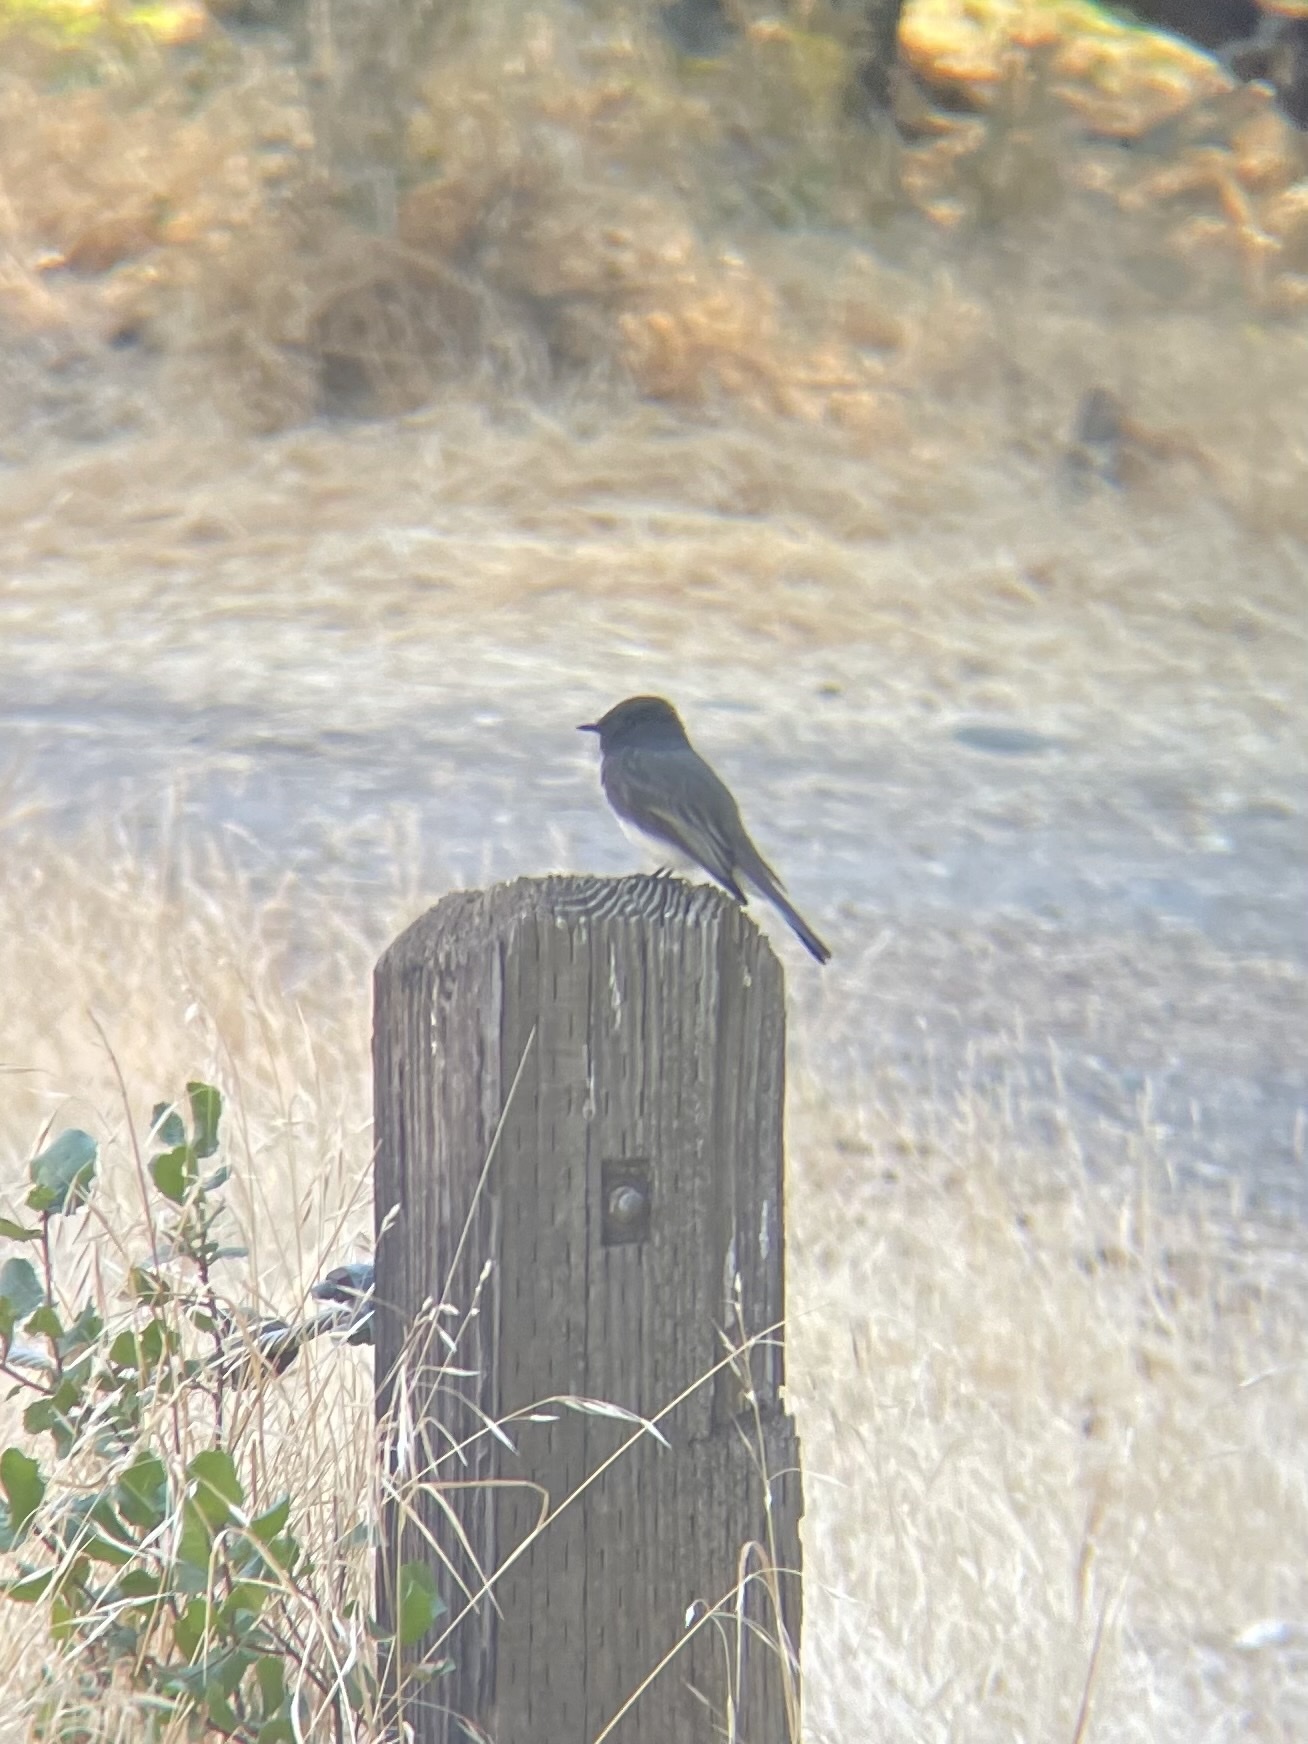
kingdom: Animalia
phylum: Chordata
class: Aves
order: Passeriformes
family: Tyrannidae
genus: Sayornis
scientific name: Sayornis nigricans
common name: Black phoebe
